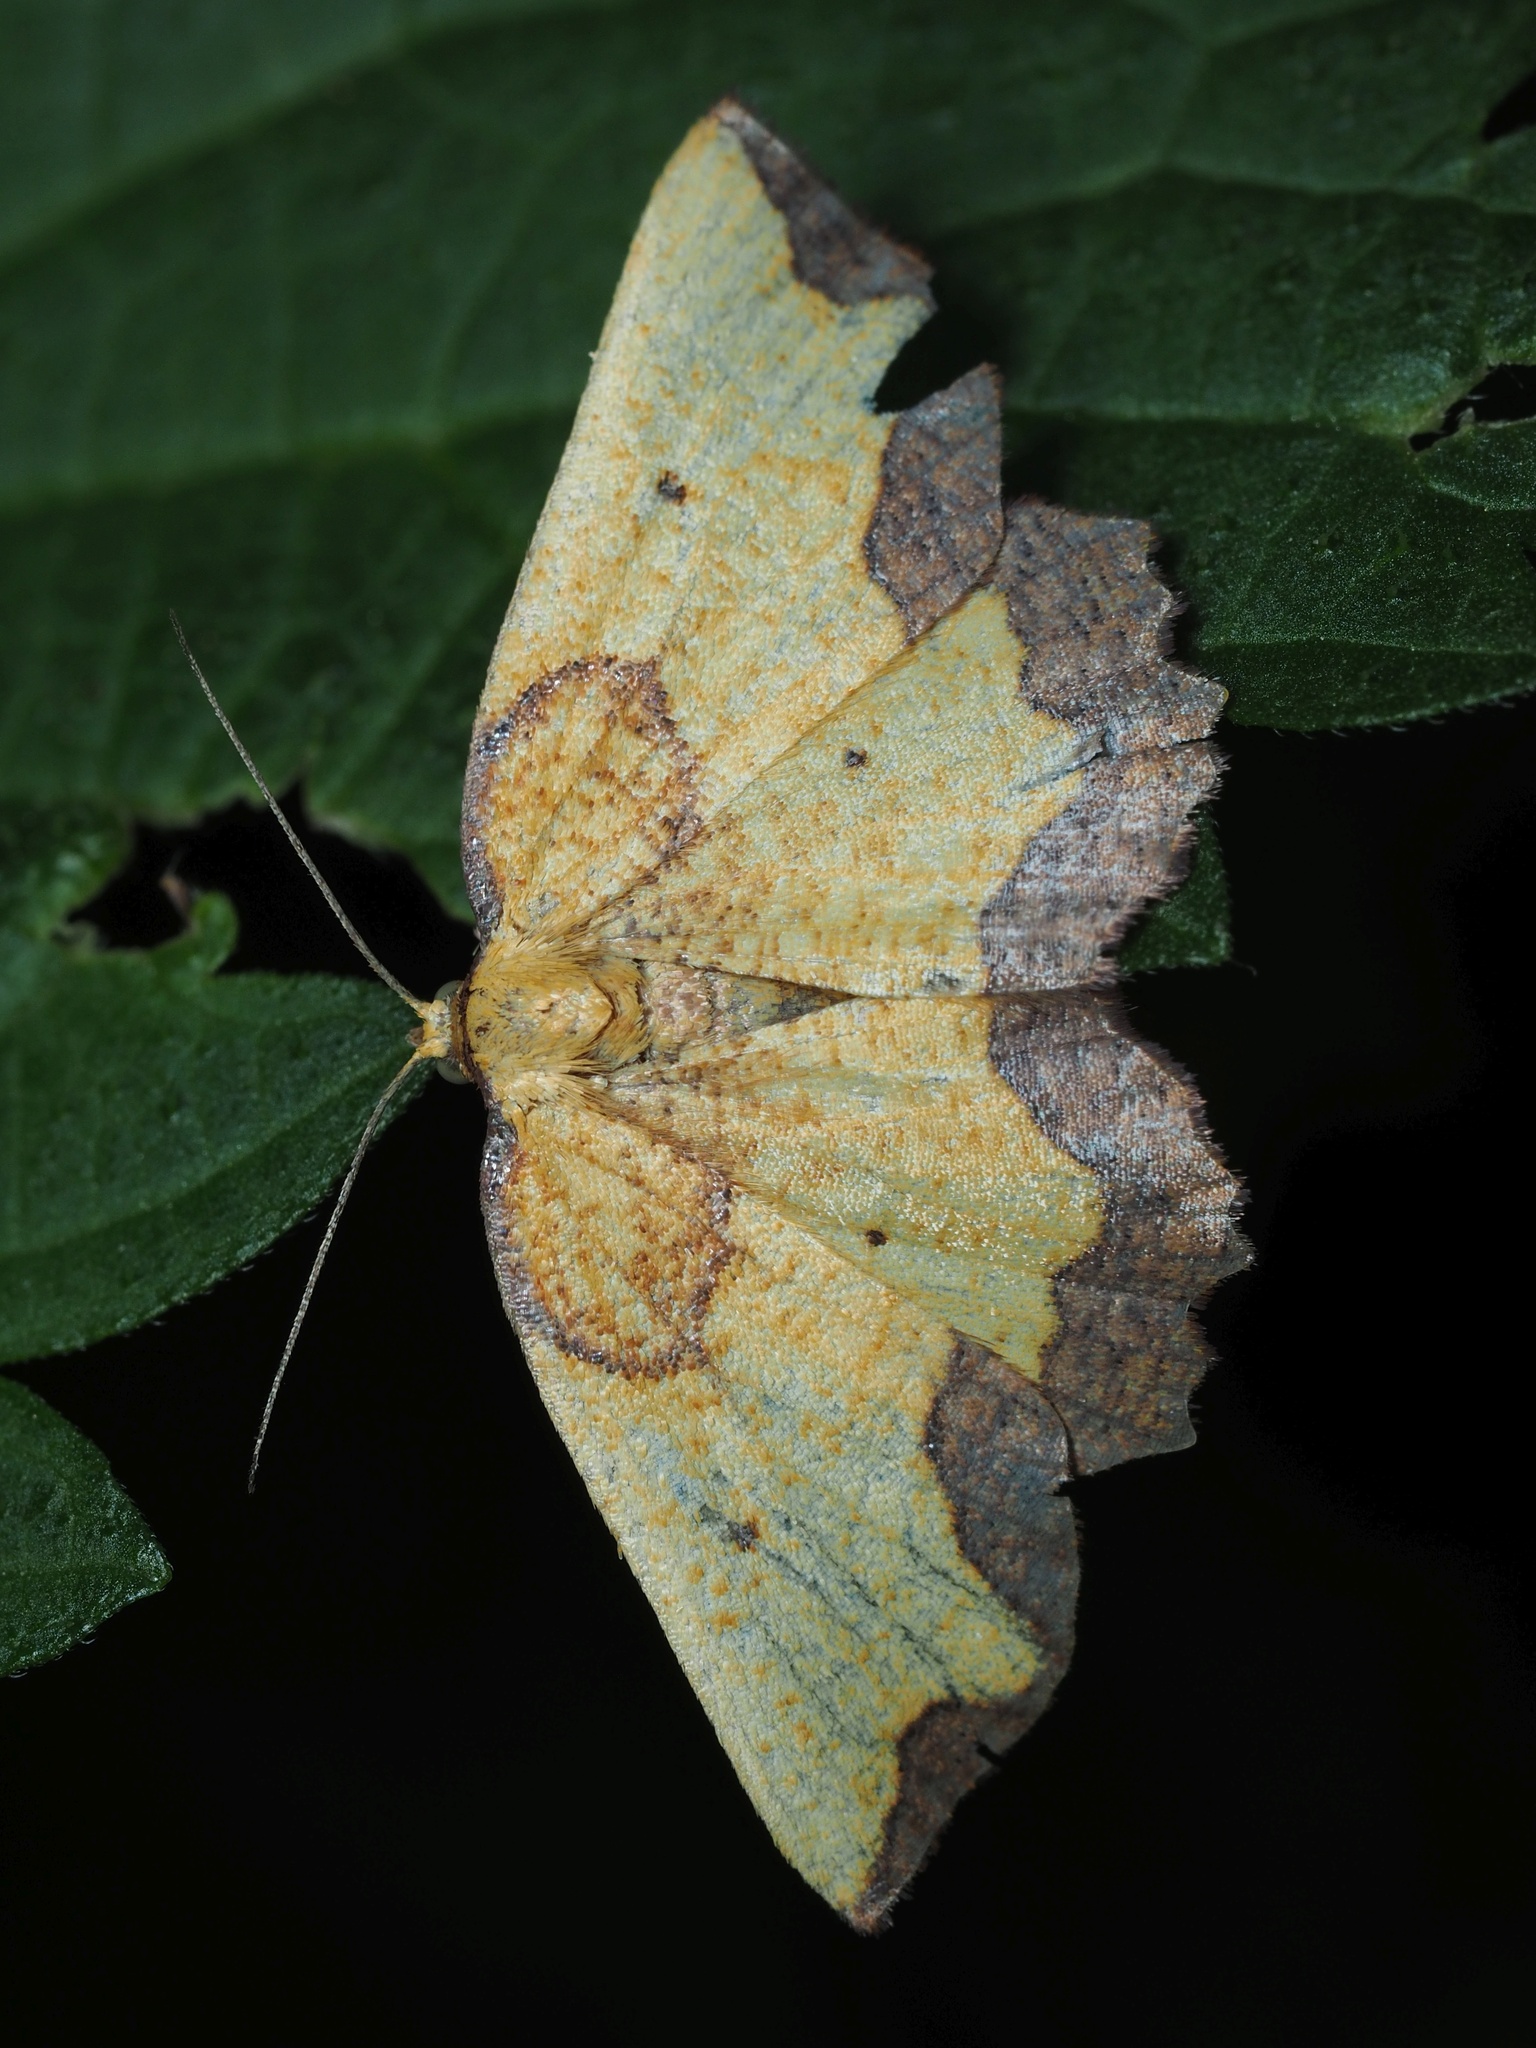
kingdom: Animalia
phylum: Arthropoda
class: Insecta
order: Lepidoptera
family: Geometridae
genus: Epione
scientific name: Epione vespertaria
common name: Dark bordered beauty
